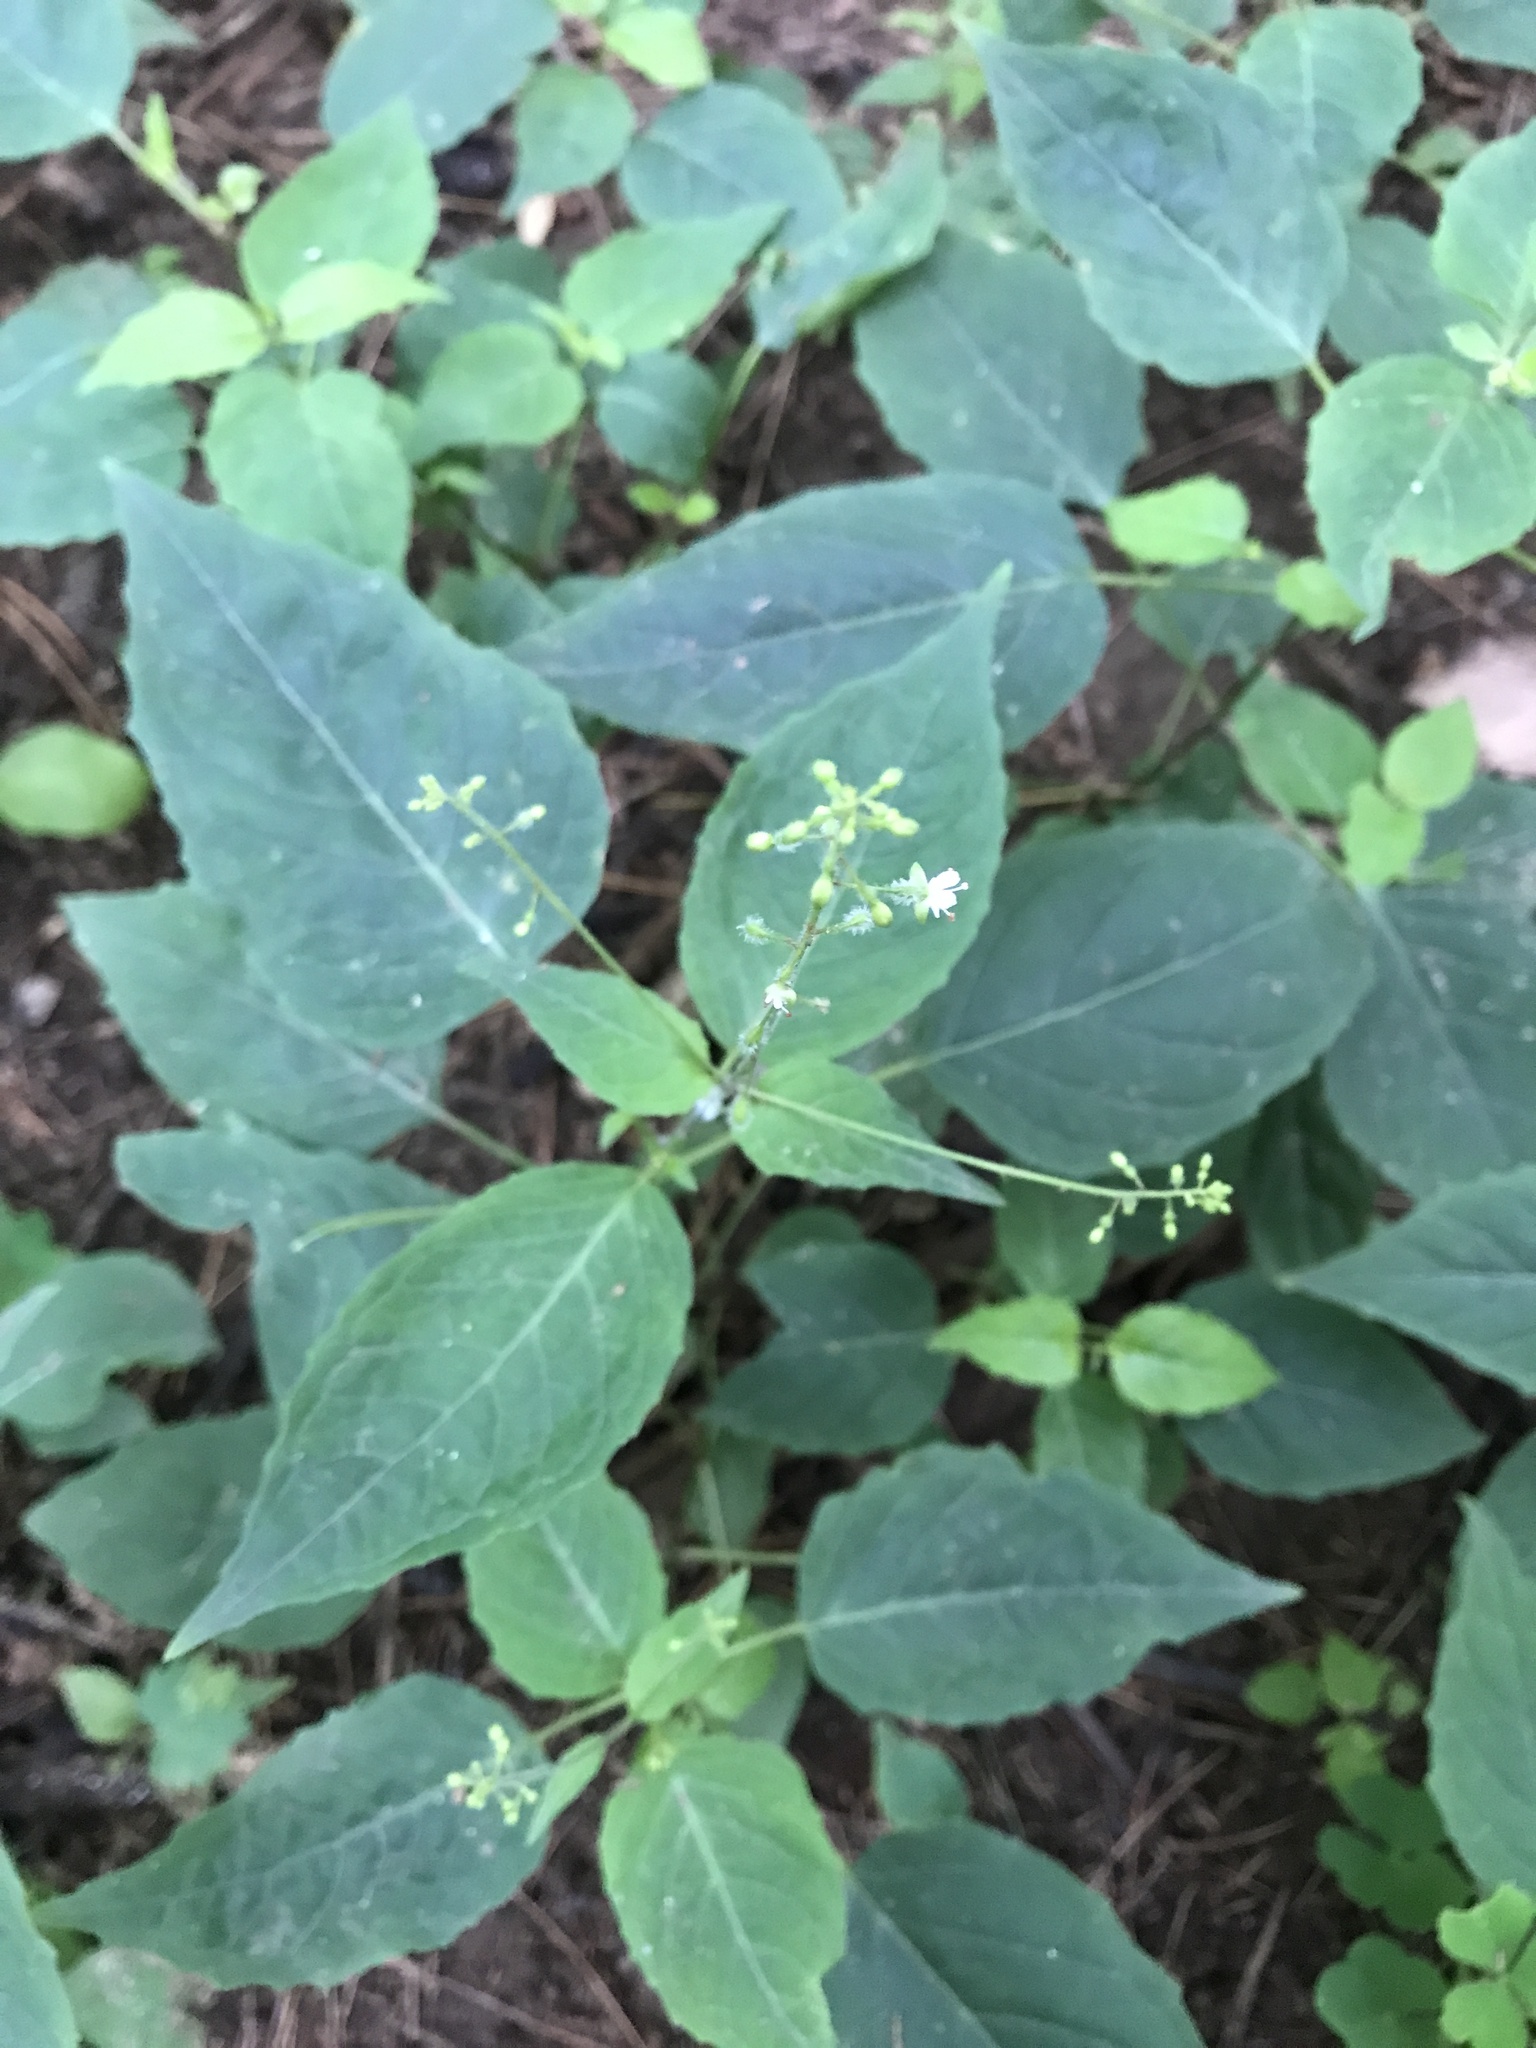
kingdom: Plantae
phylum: Tracheophyta
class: Magnoliopsida
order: Myrtales
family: Onagraceae
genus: Circaea
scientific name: Circaea canadensis
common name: Broad-leaved enchanter's nightshade
